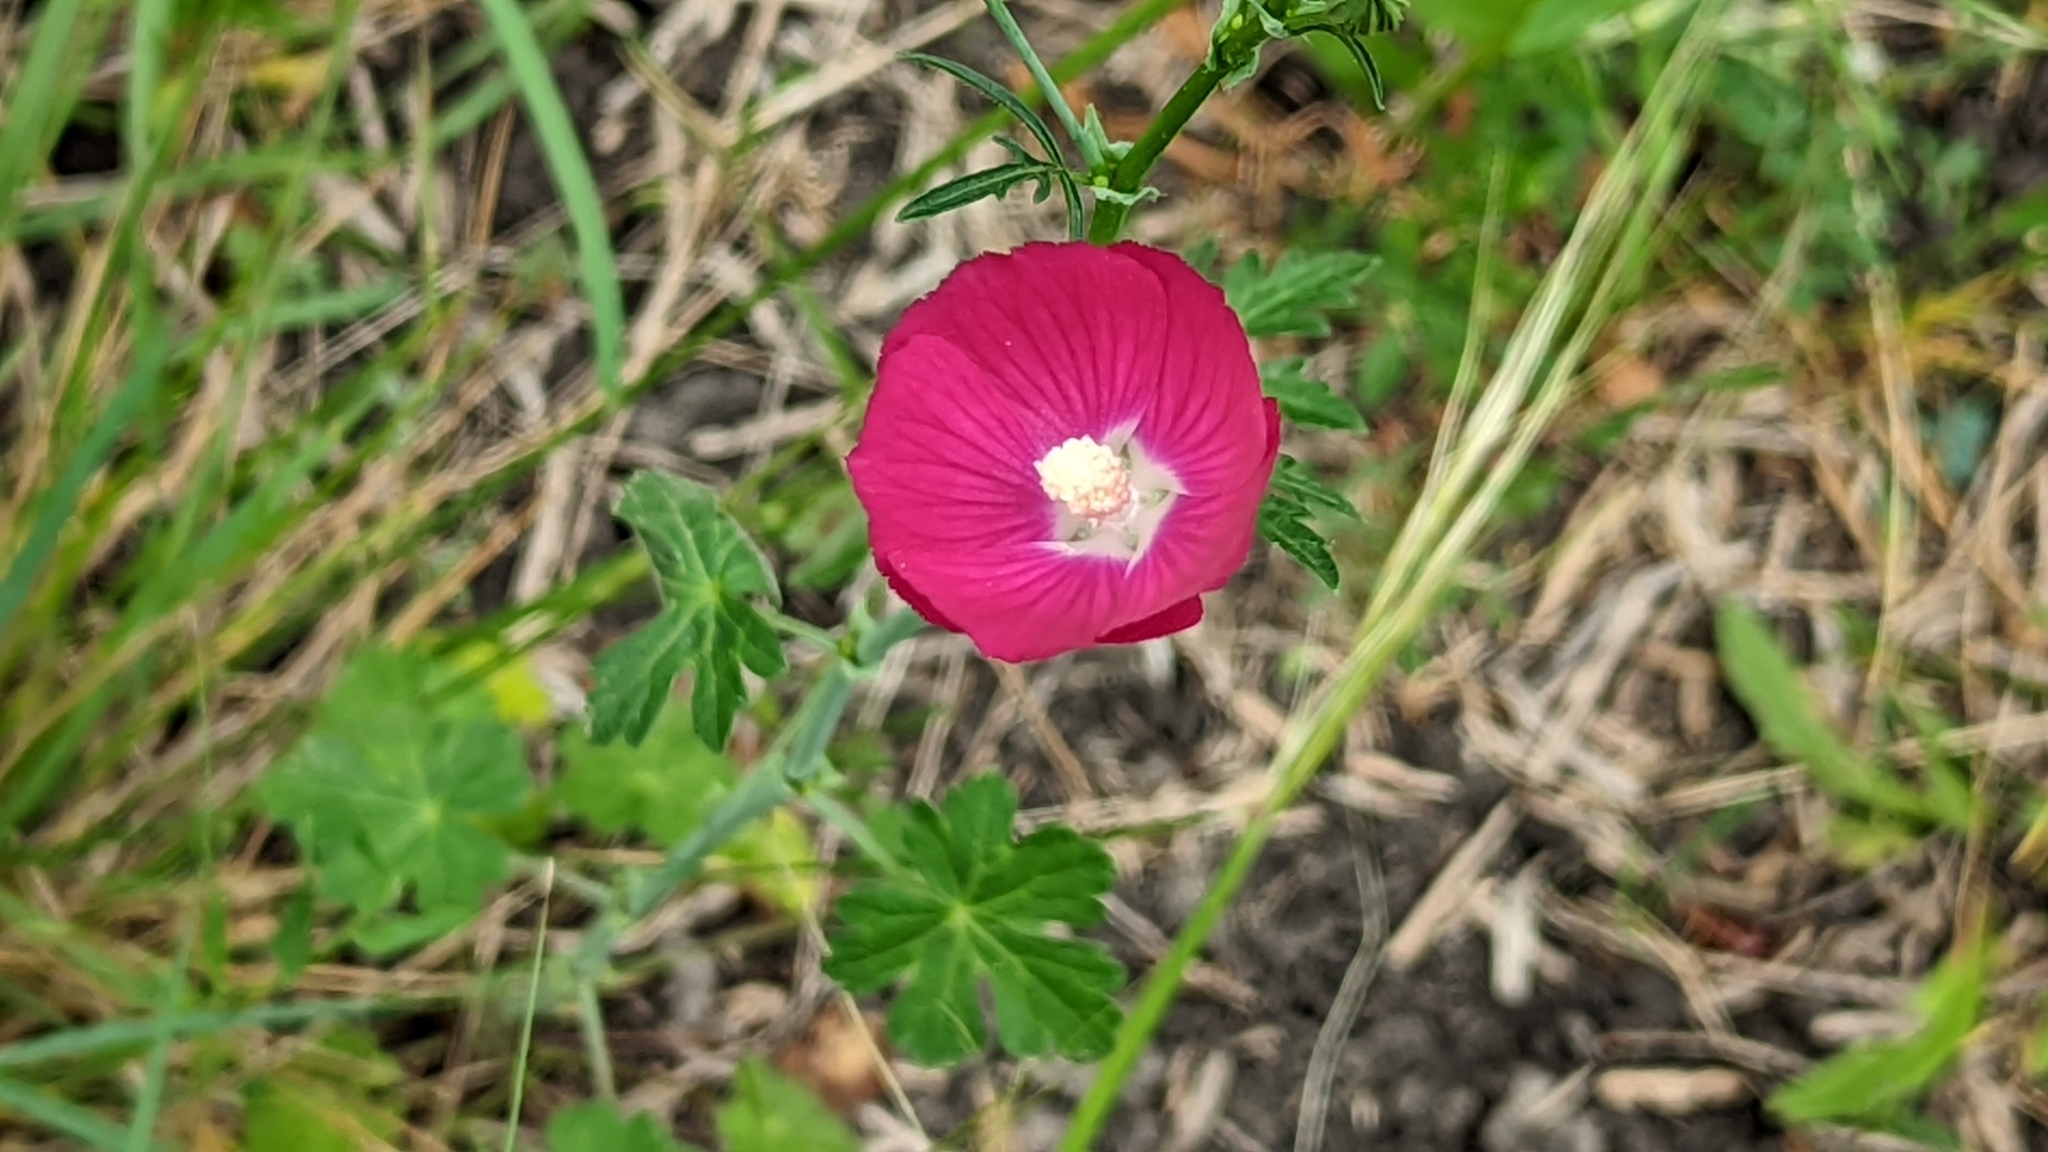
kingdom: Plantae
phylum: Tracheophyta
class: Magnoliopsida
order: Malvales
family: Malvaceae
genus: Callirhoe
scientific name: Callirhoe leiocarpa
